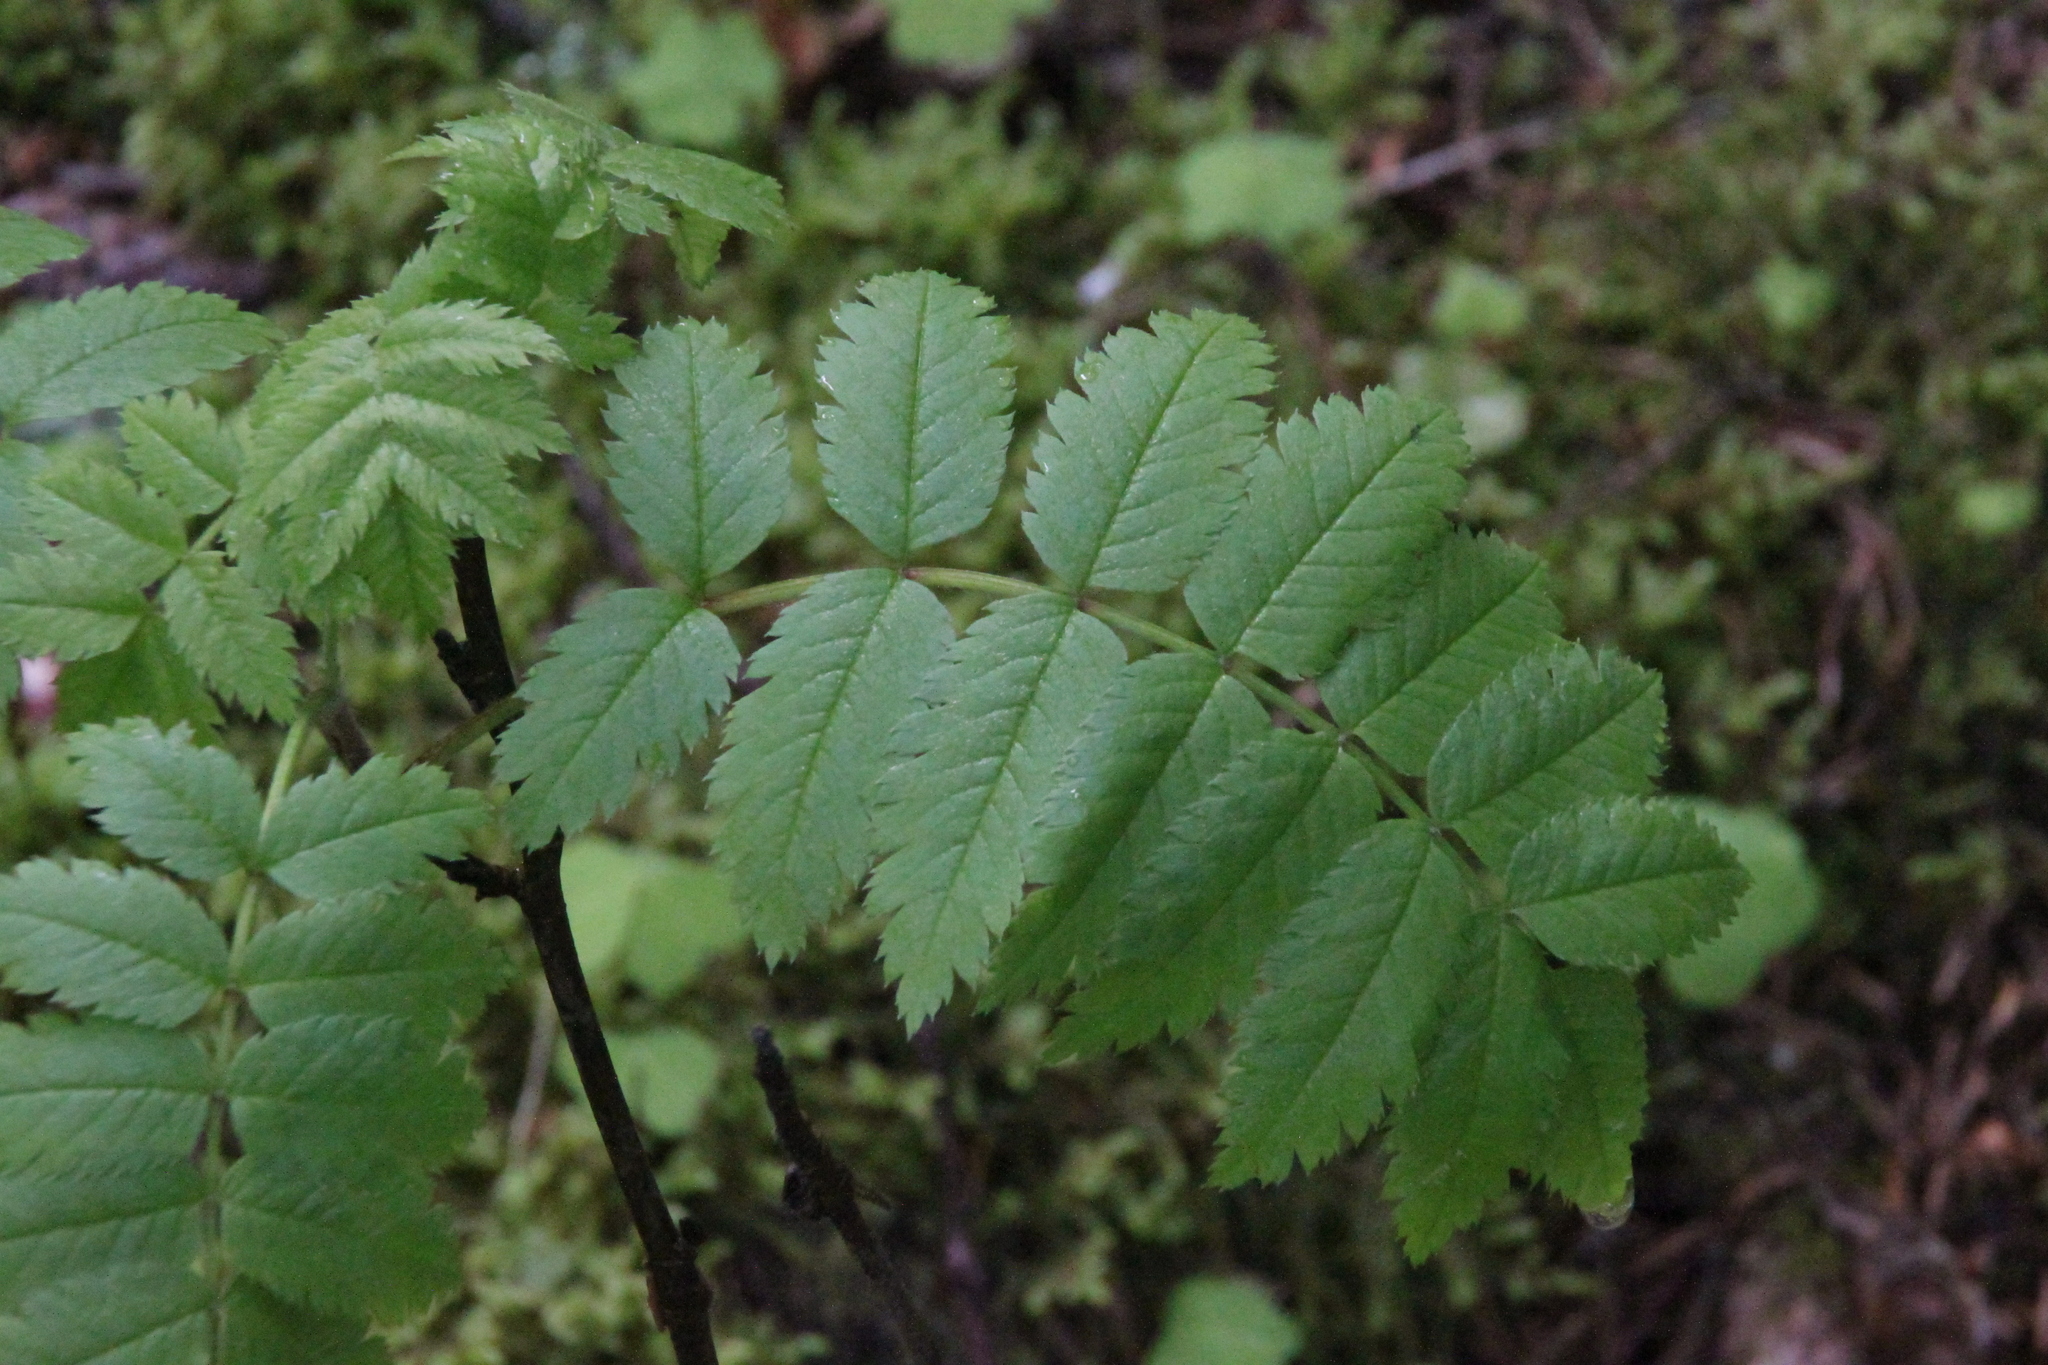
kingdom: Plantae
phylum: Tracheophyta
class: Magnoliopsida
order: Rosales
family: Rosaceae
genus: Sorbus
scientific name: Sorbus aucuparia
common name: Rowan
